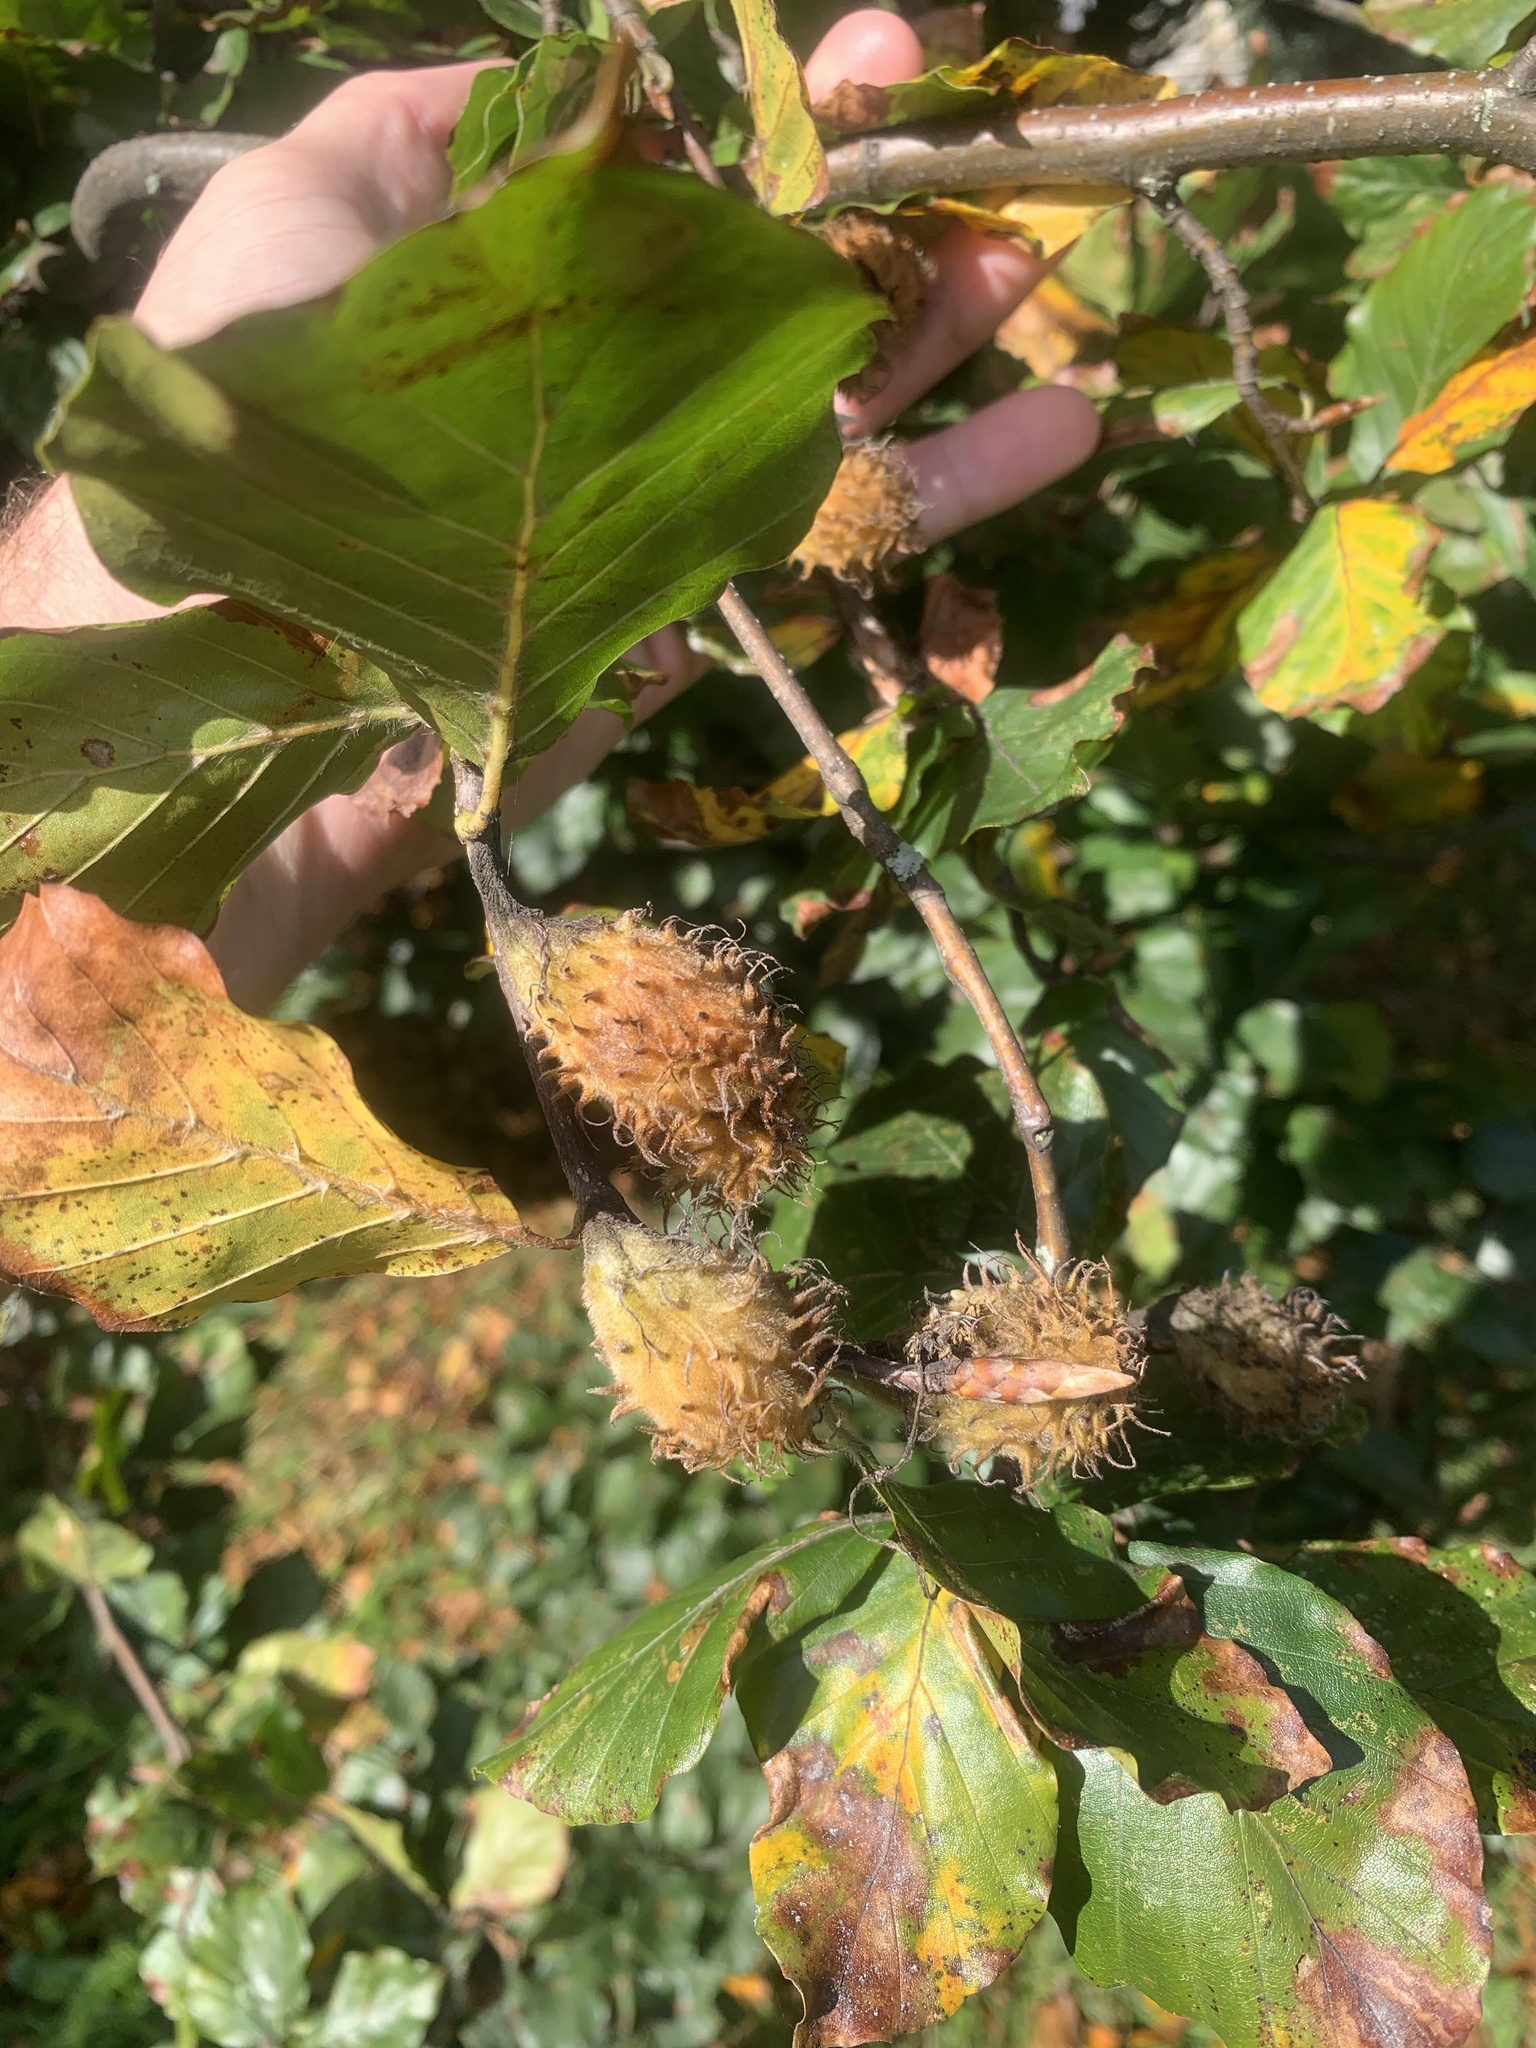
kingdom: Plantae
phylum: Tracheophyta
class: Magnoliopsida
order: Fagales
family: Fagaceae
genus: Fagus
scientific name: Fagus sylvatica
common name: Beech
